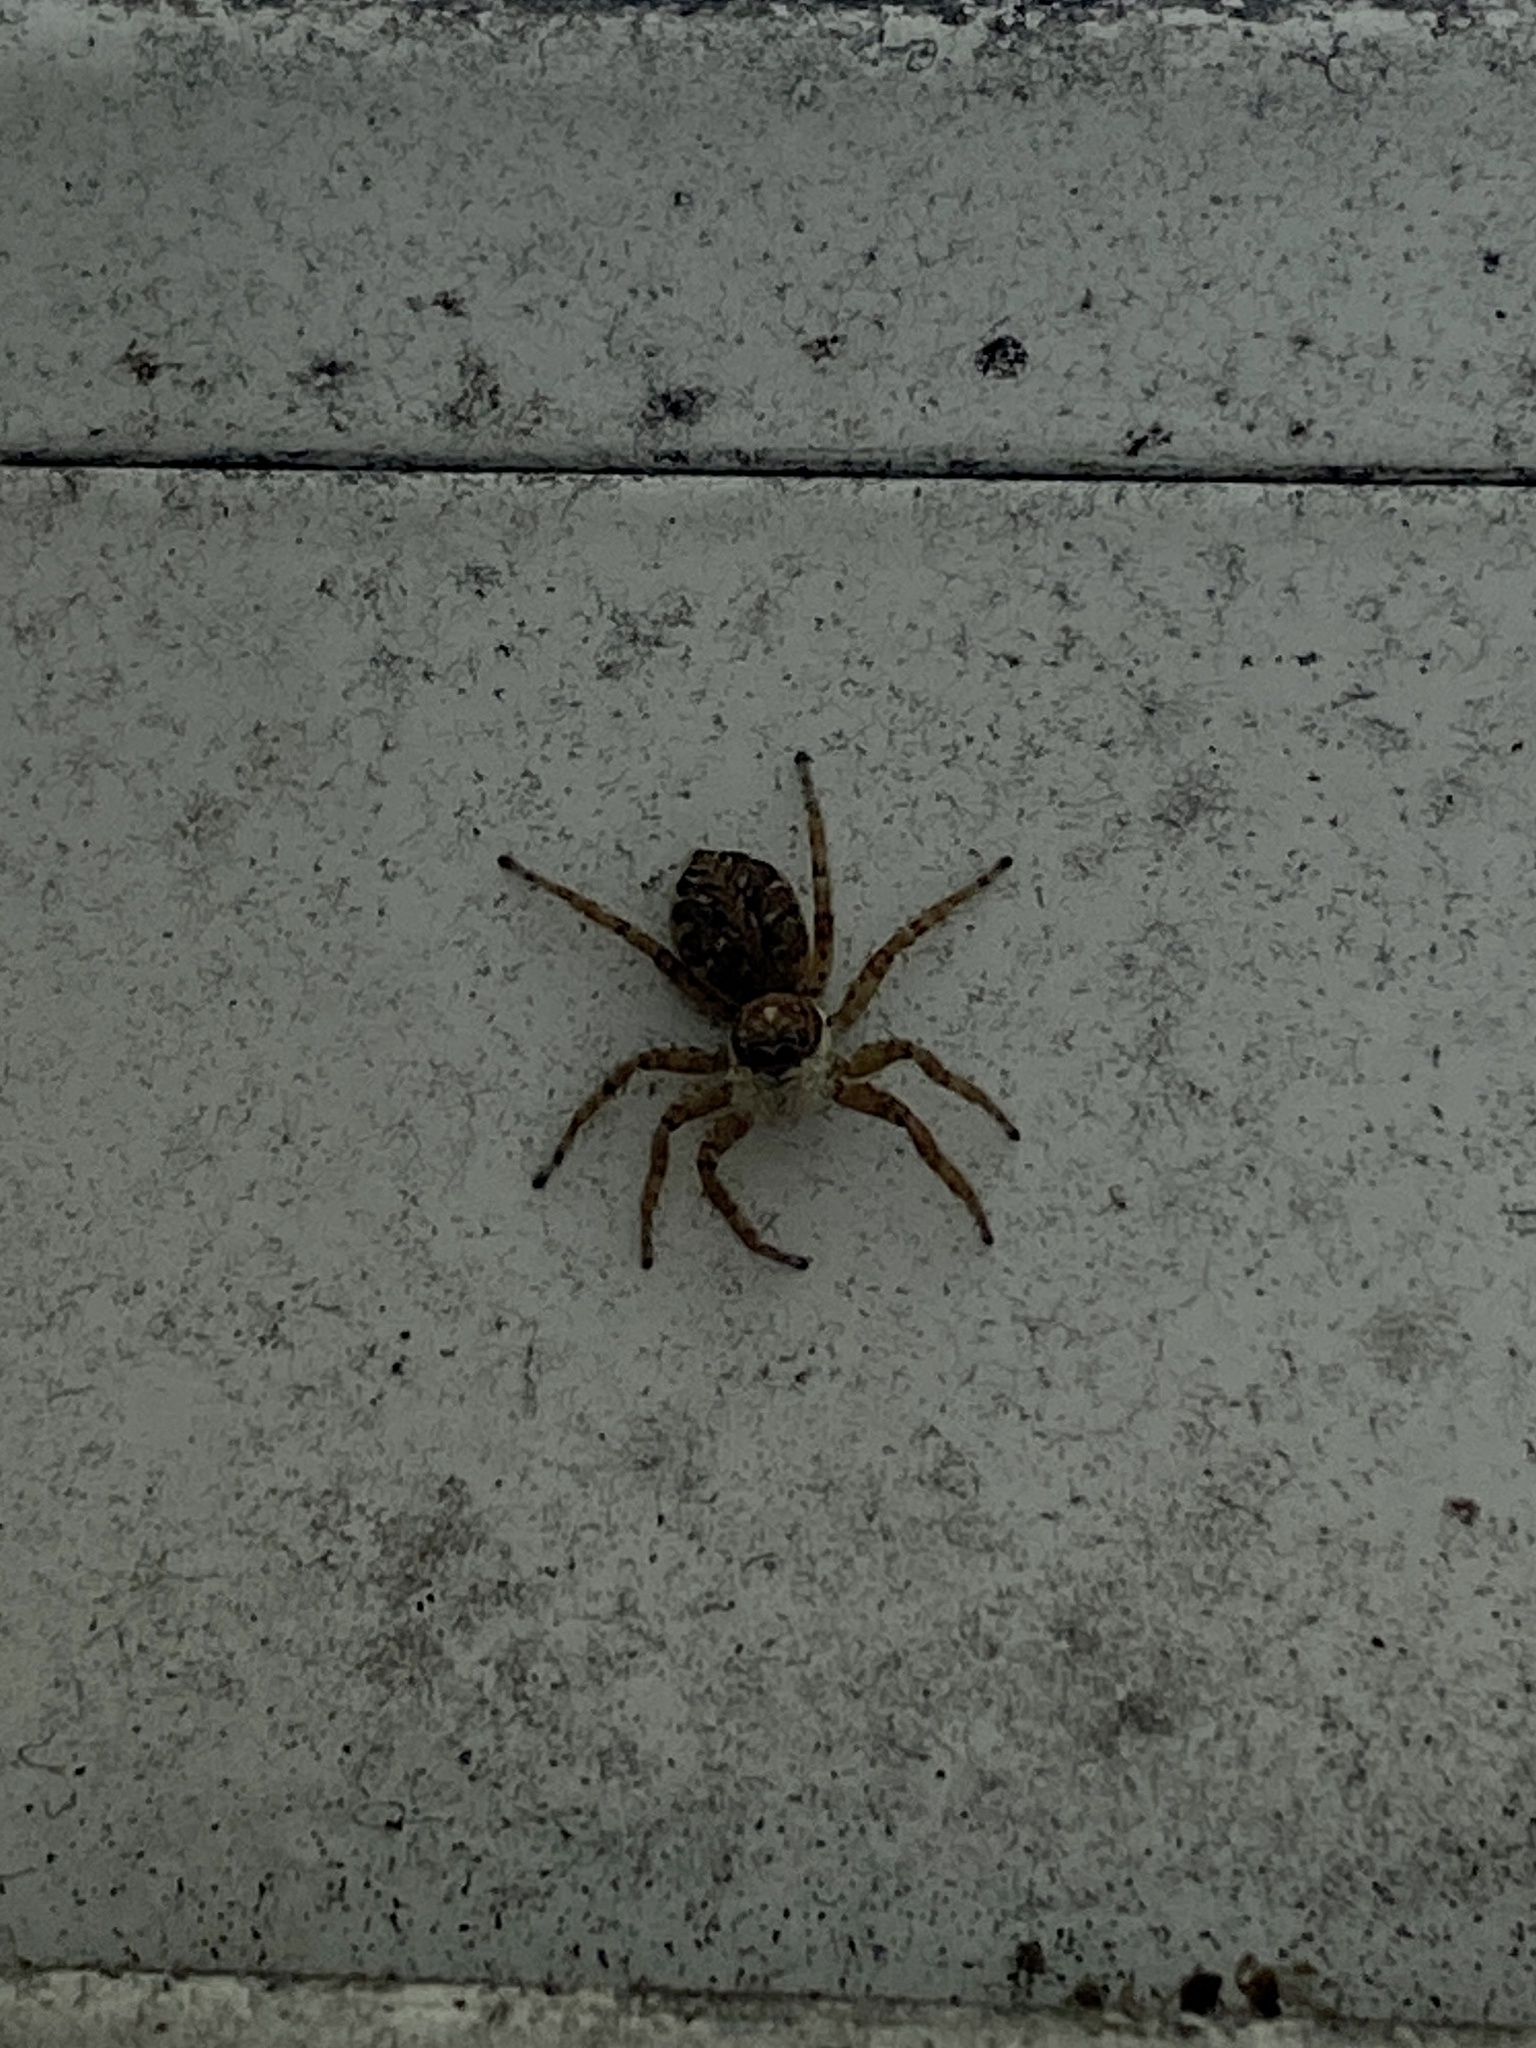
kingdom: Animalia
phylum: Arthropoda
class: Arachnida
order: Araneae
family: Salticidae
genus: Menemerus
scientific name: Menemerus semilimbatus
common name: Jumping spider
